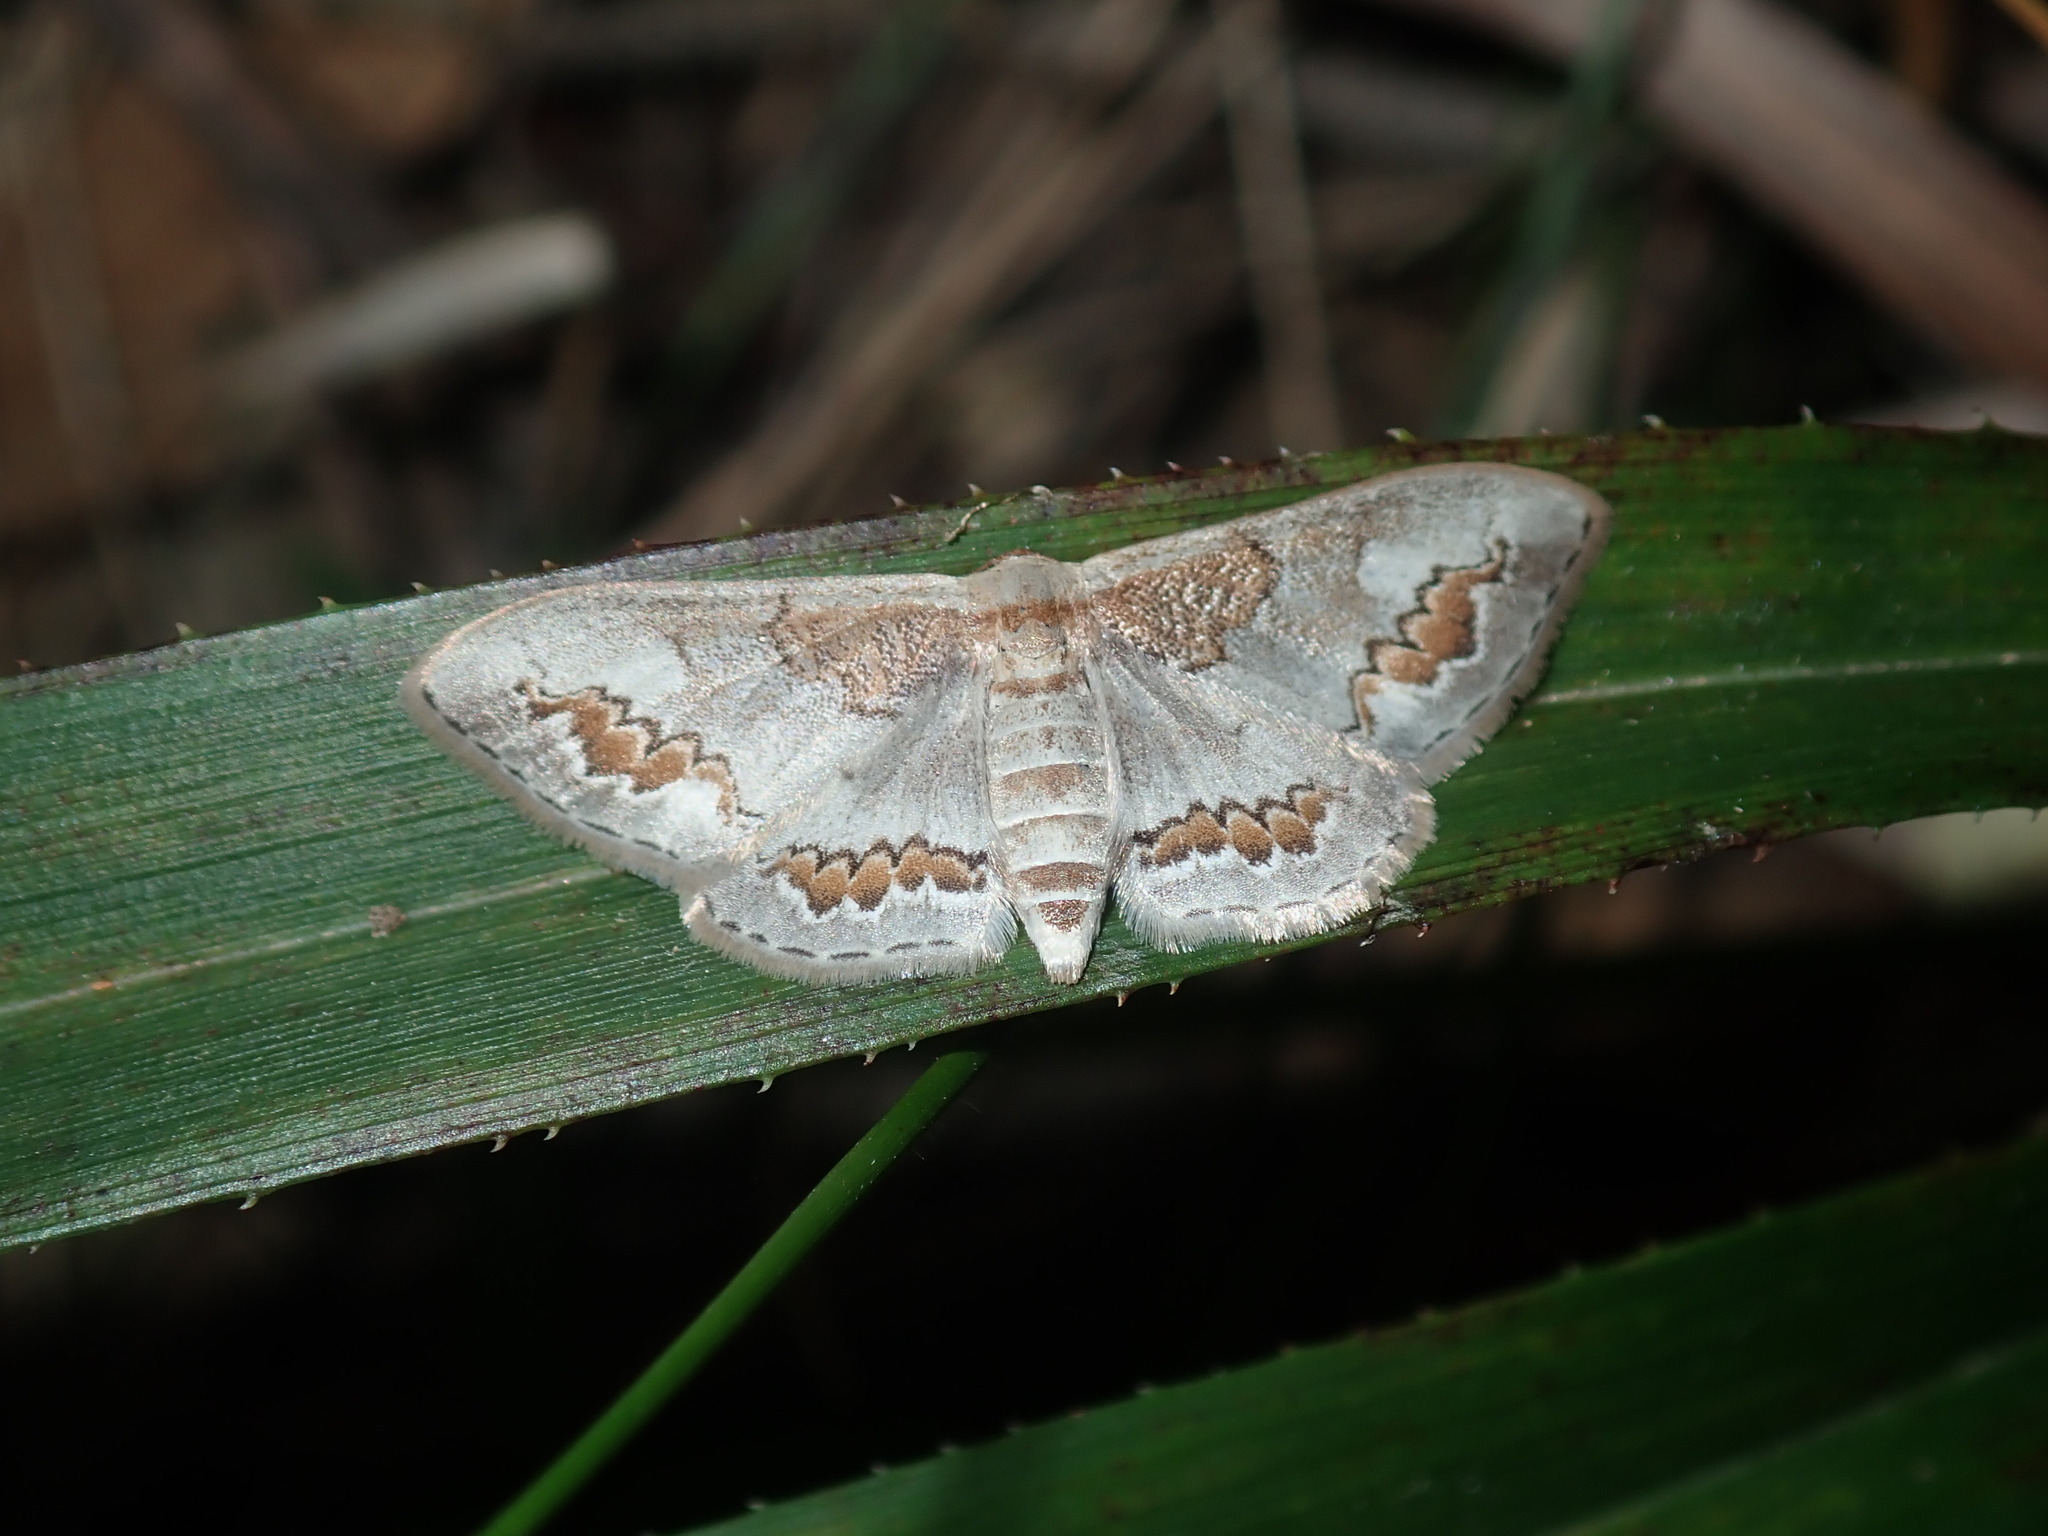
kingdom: Animalia
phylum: Arthropoda
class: Insecta
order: Lepidoptera
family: Geometridae
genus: Dithalama
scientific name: Dithalama cosmospila
